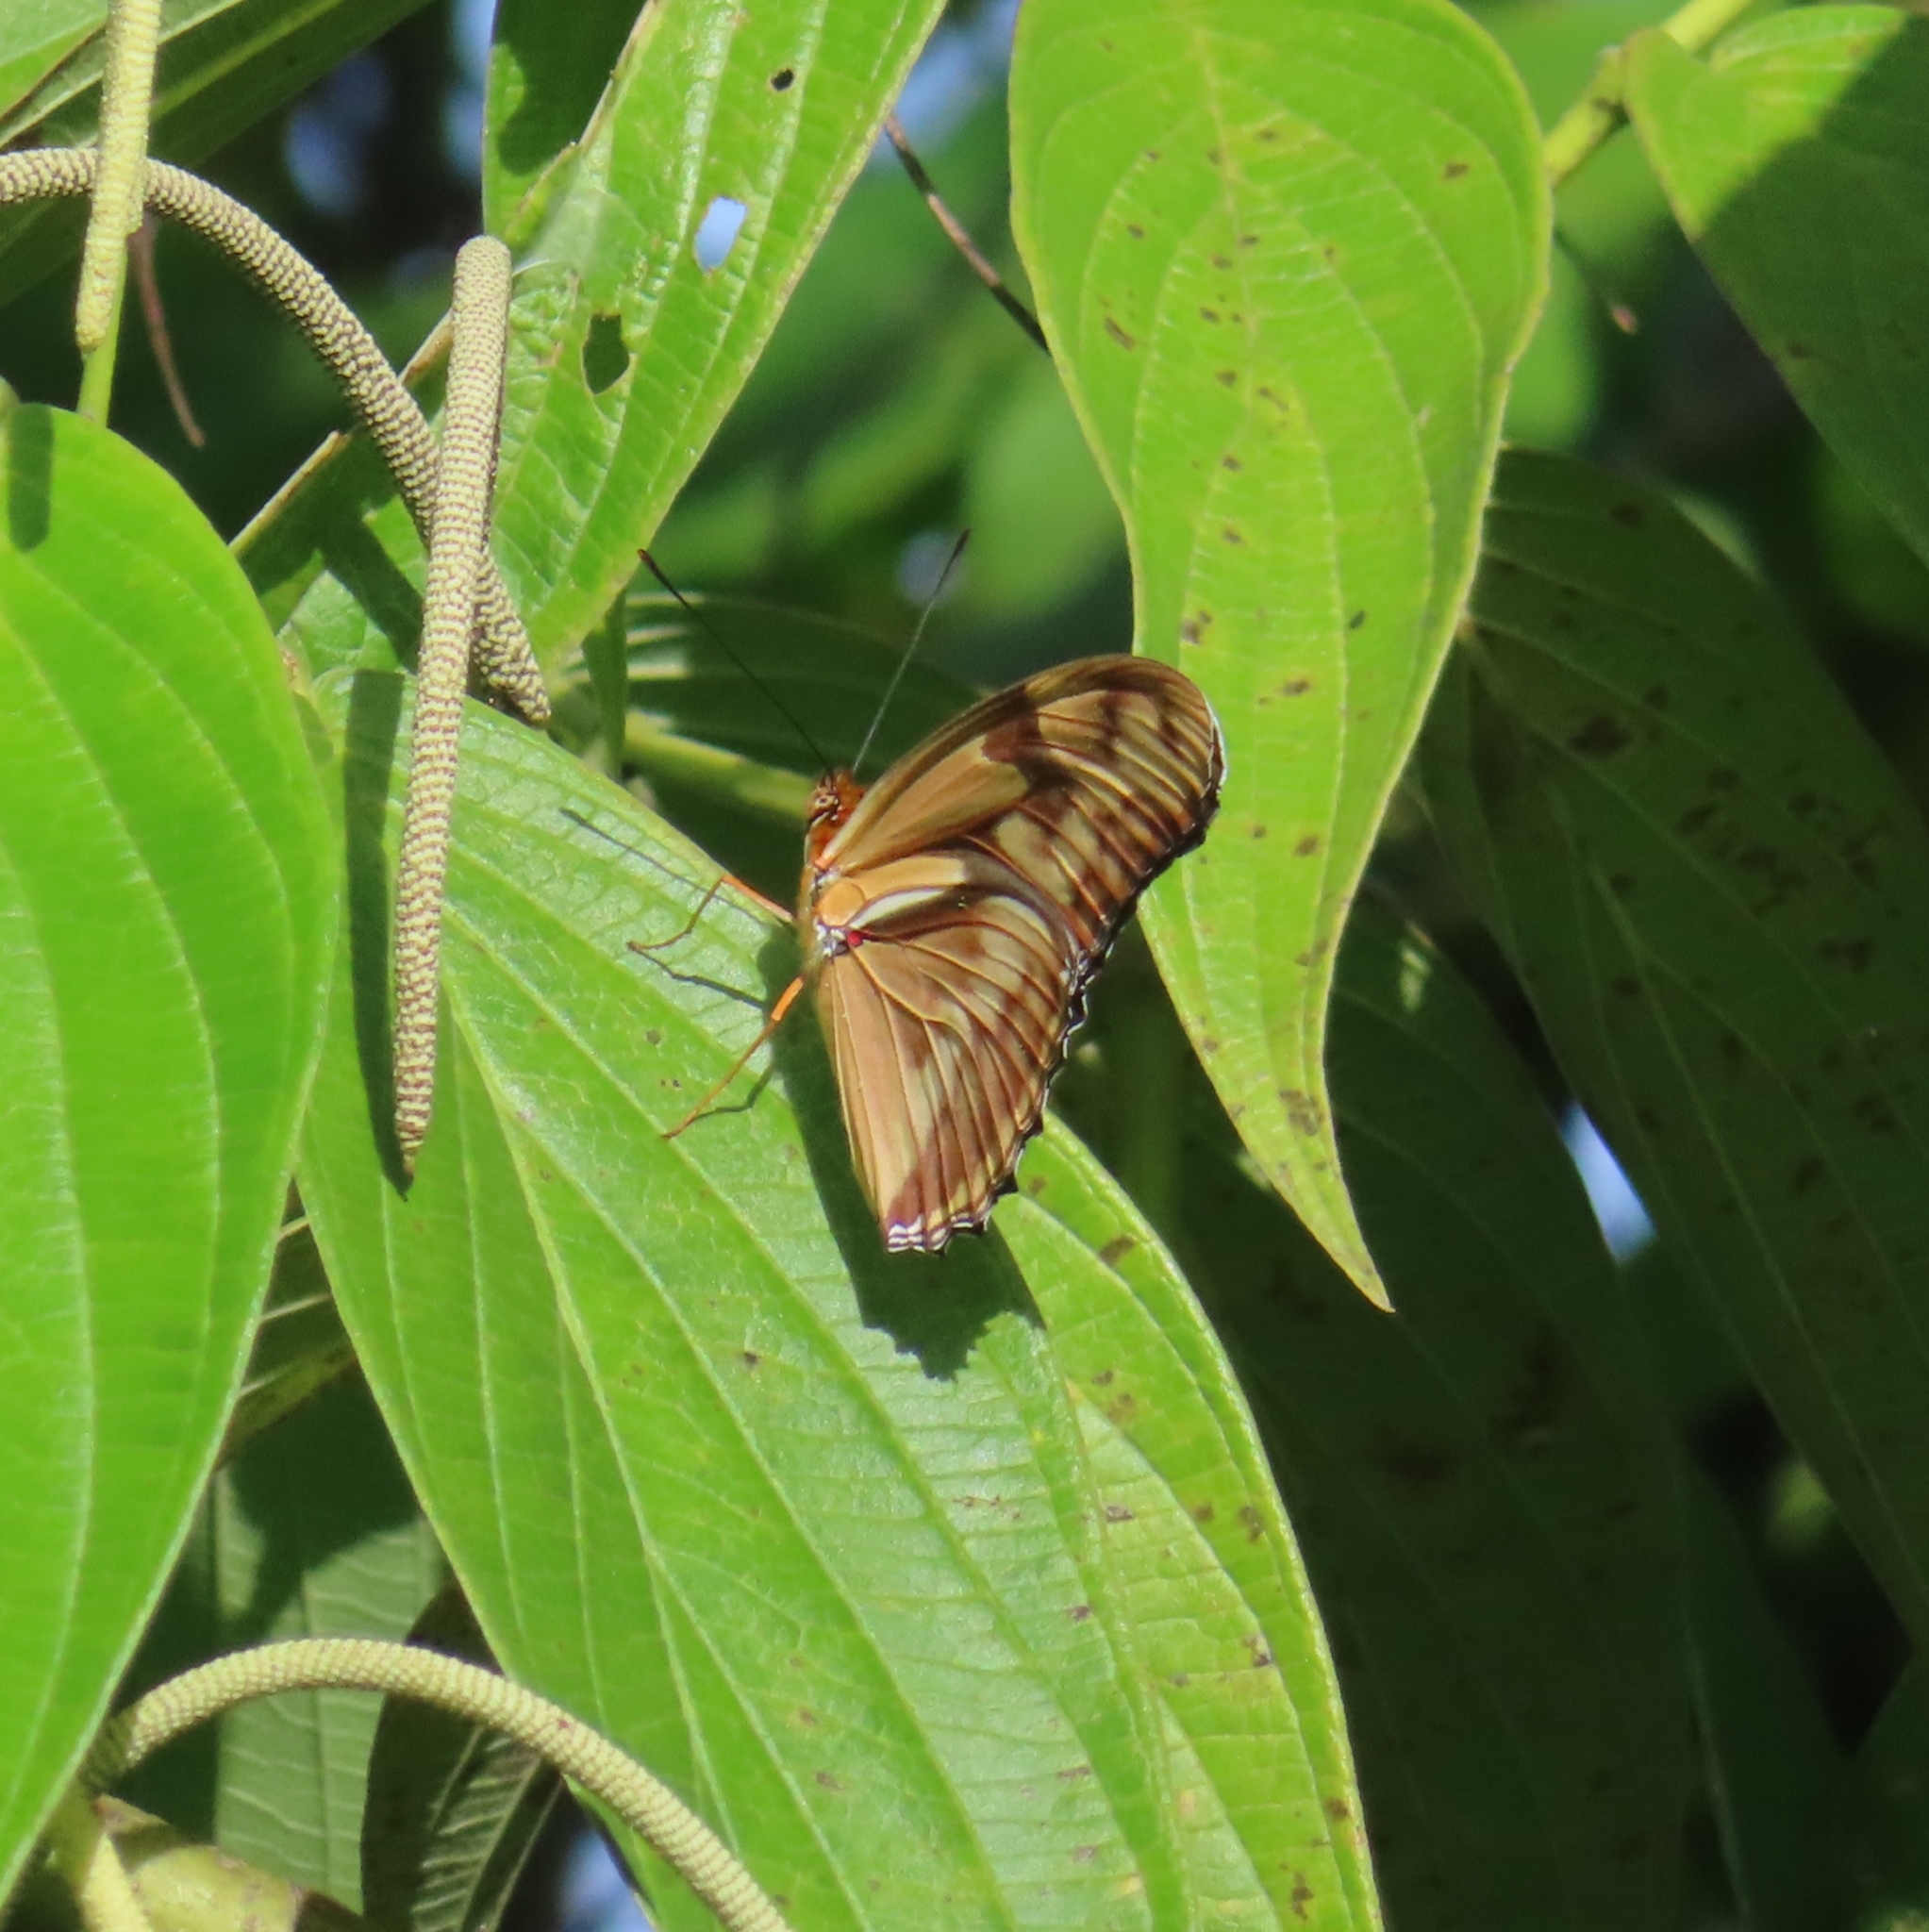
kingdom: Animalia
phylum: Arthropoda
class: Insecta
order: Lepidoptera
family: Nymphalidae
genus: Dryas
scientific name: Dryas iulia
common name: Flambeau
